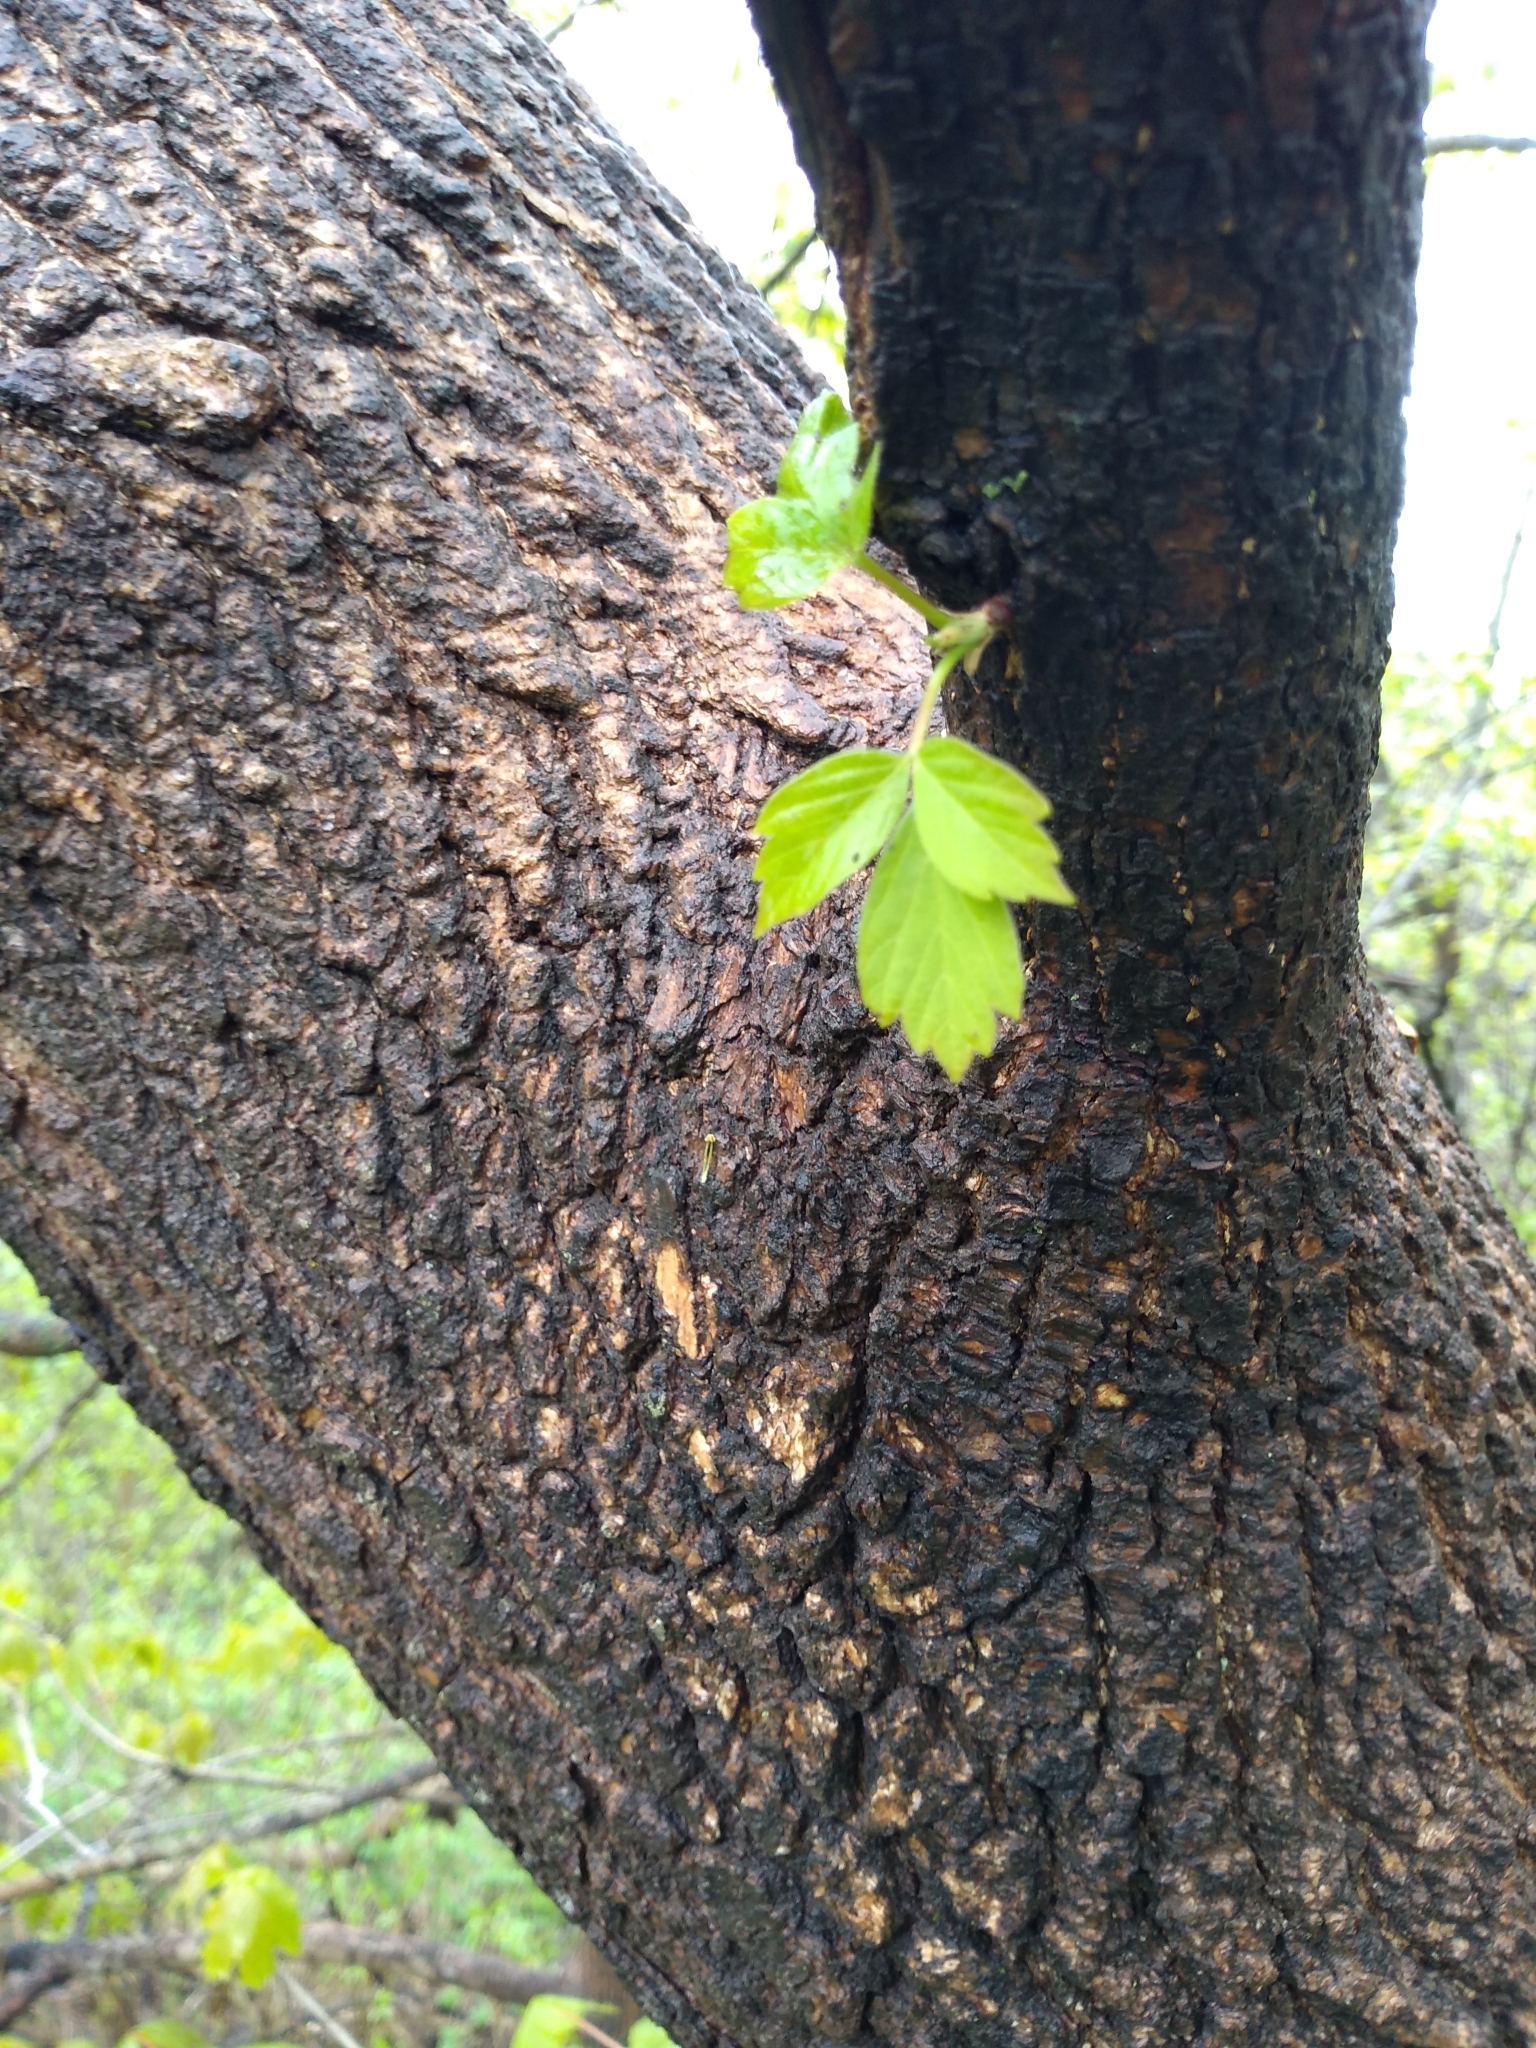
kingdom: Plantae
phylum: Tracheophyta
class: Magnoliopsida
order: Sapindales
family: Sapindaceae
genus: Acer
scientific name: Acer negundo
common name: Ashleaf maple
